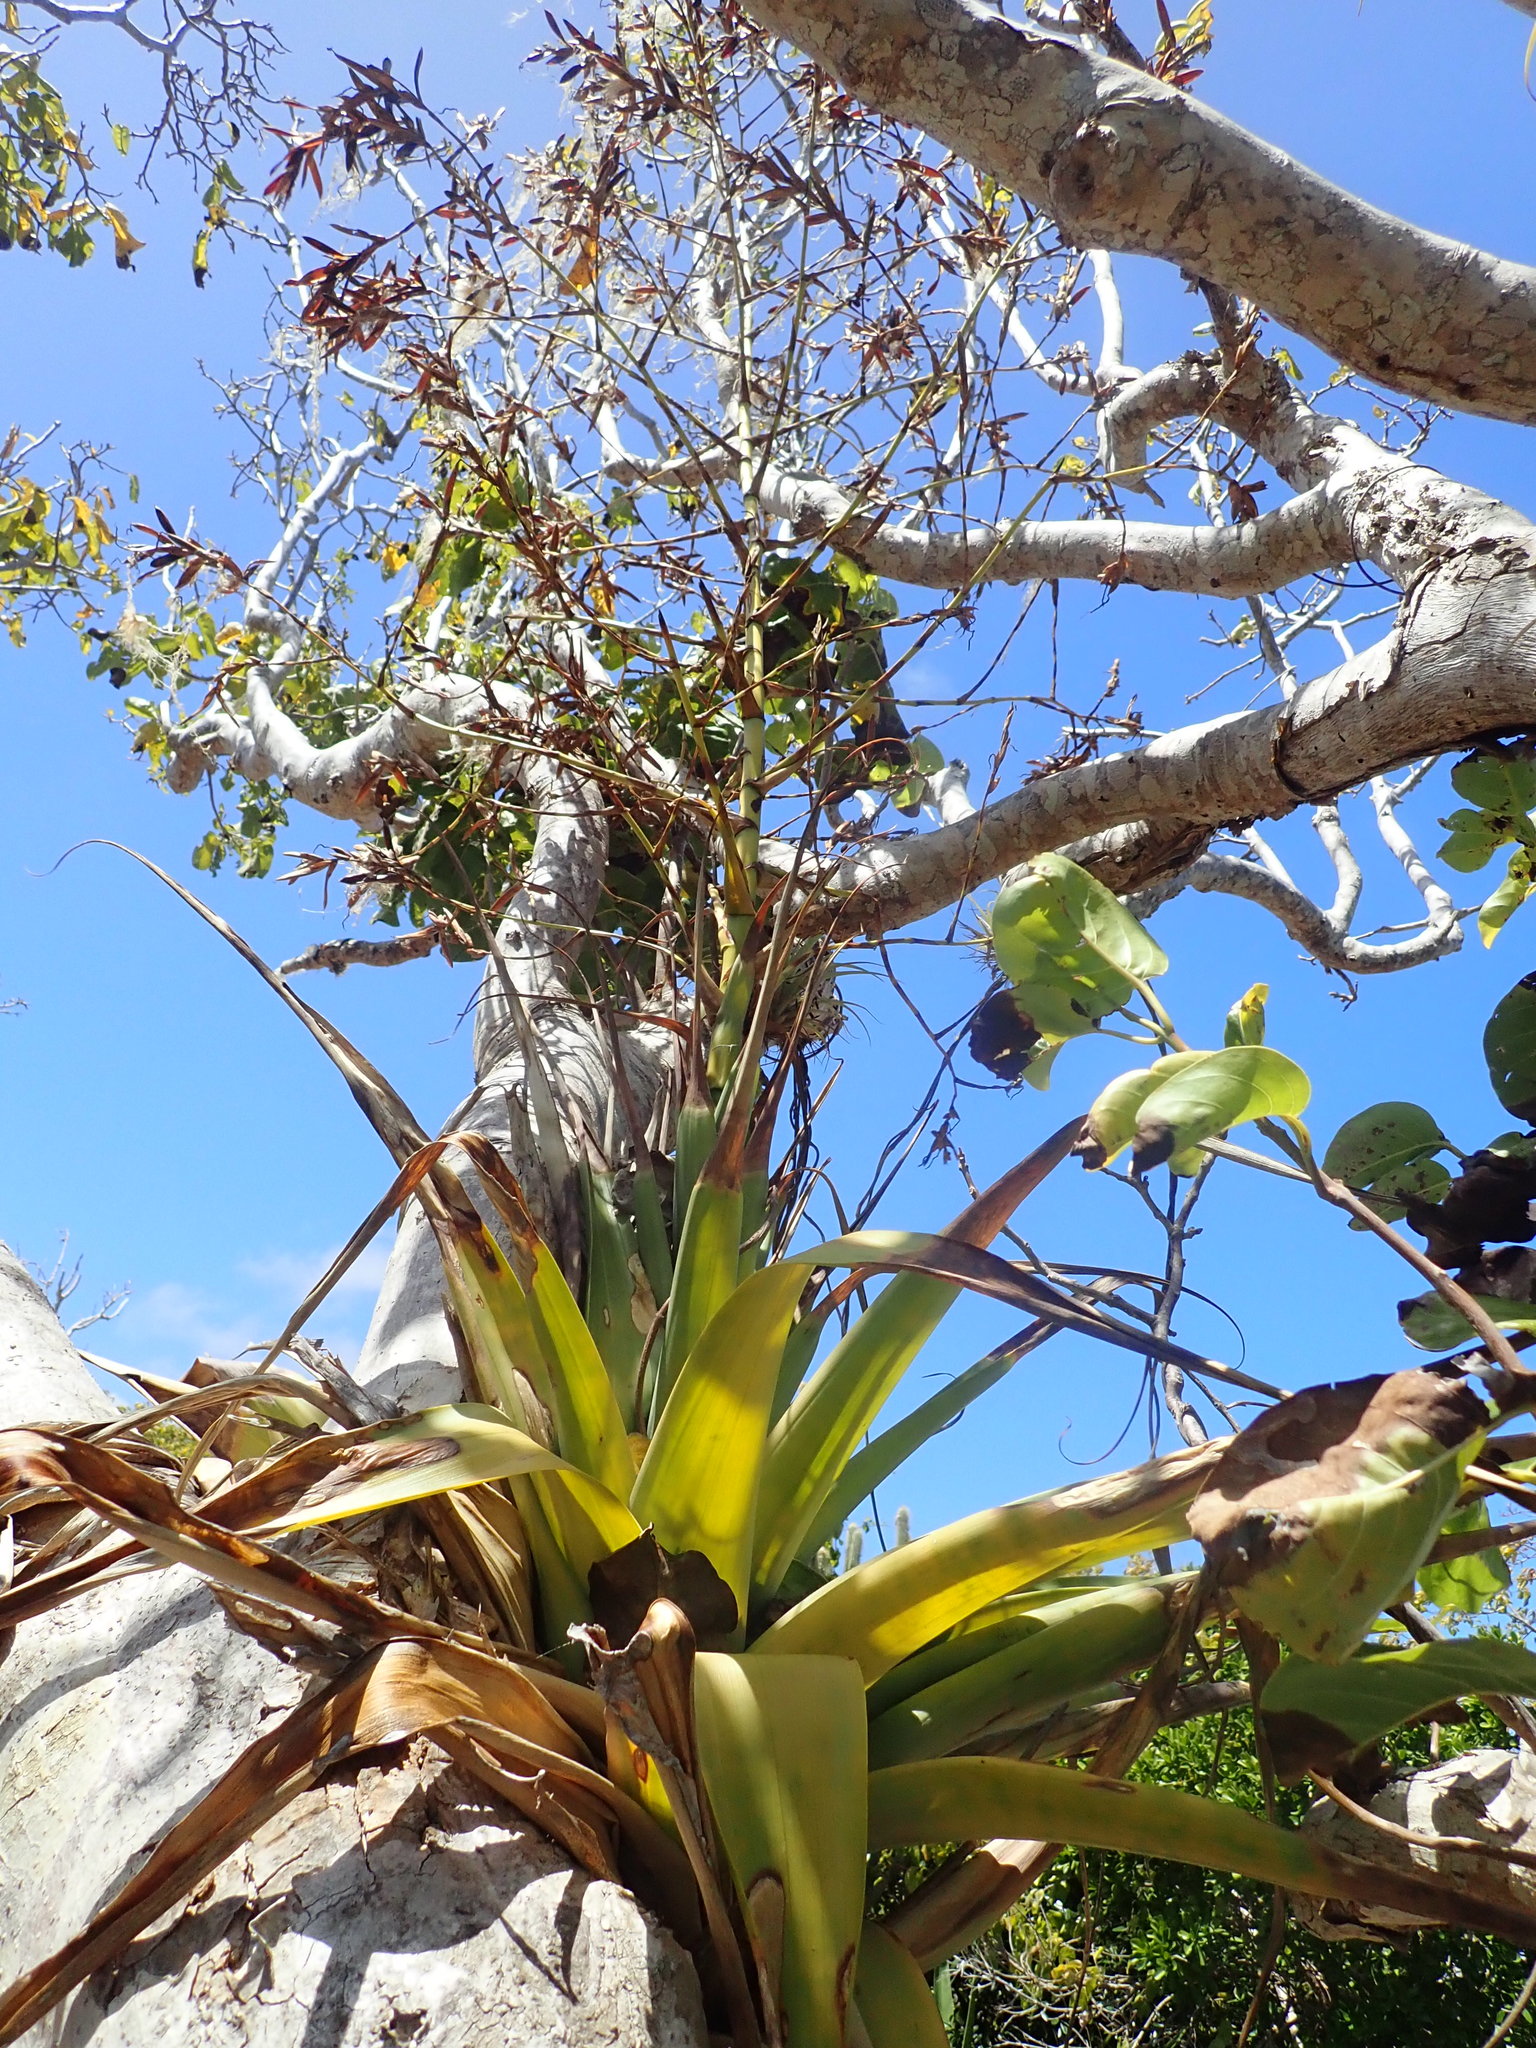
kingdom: Plantae
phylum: Tracheophyta
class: Liliopsida
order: Poales
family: Bromeliaceae
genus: Tillandsia
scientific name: Tillandsia utriculata
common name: Wild pine
